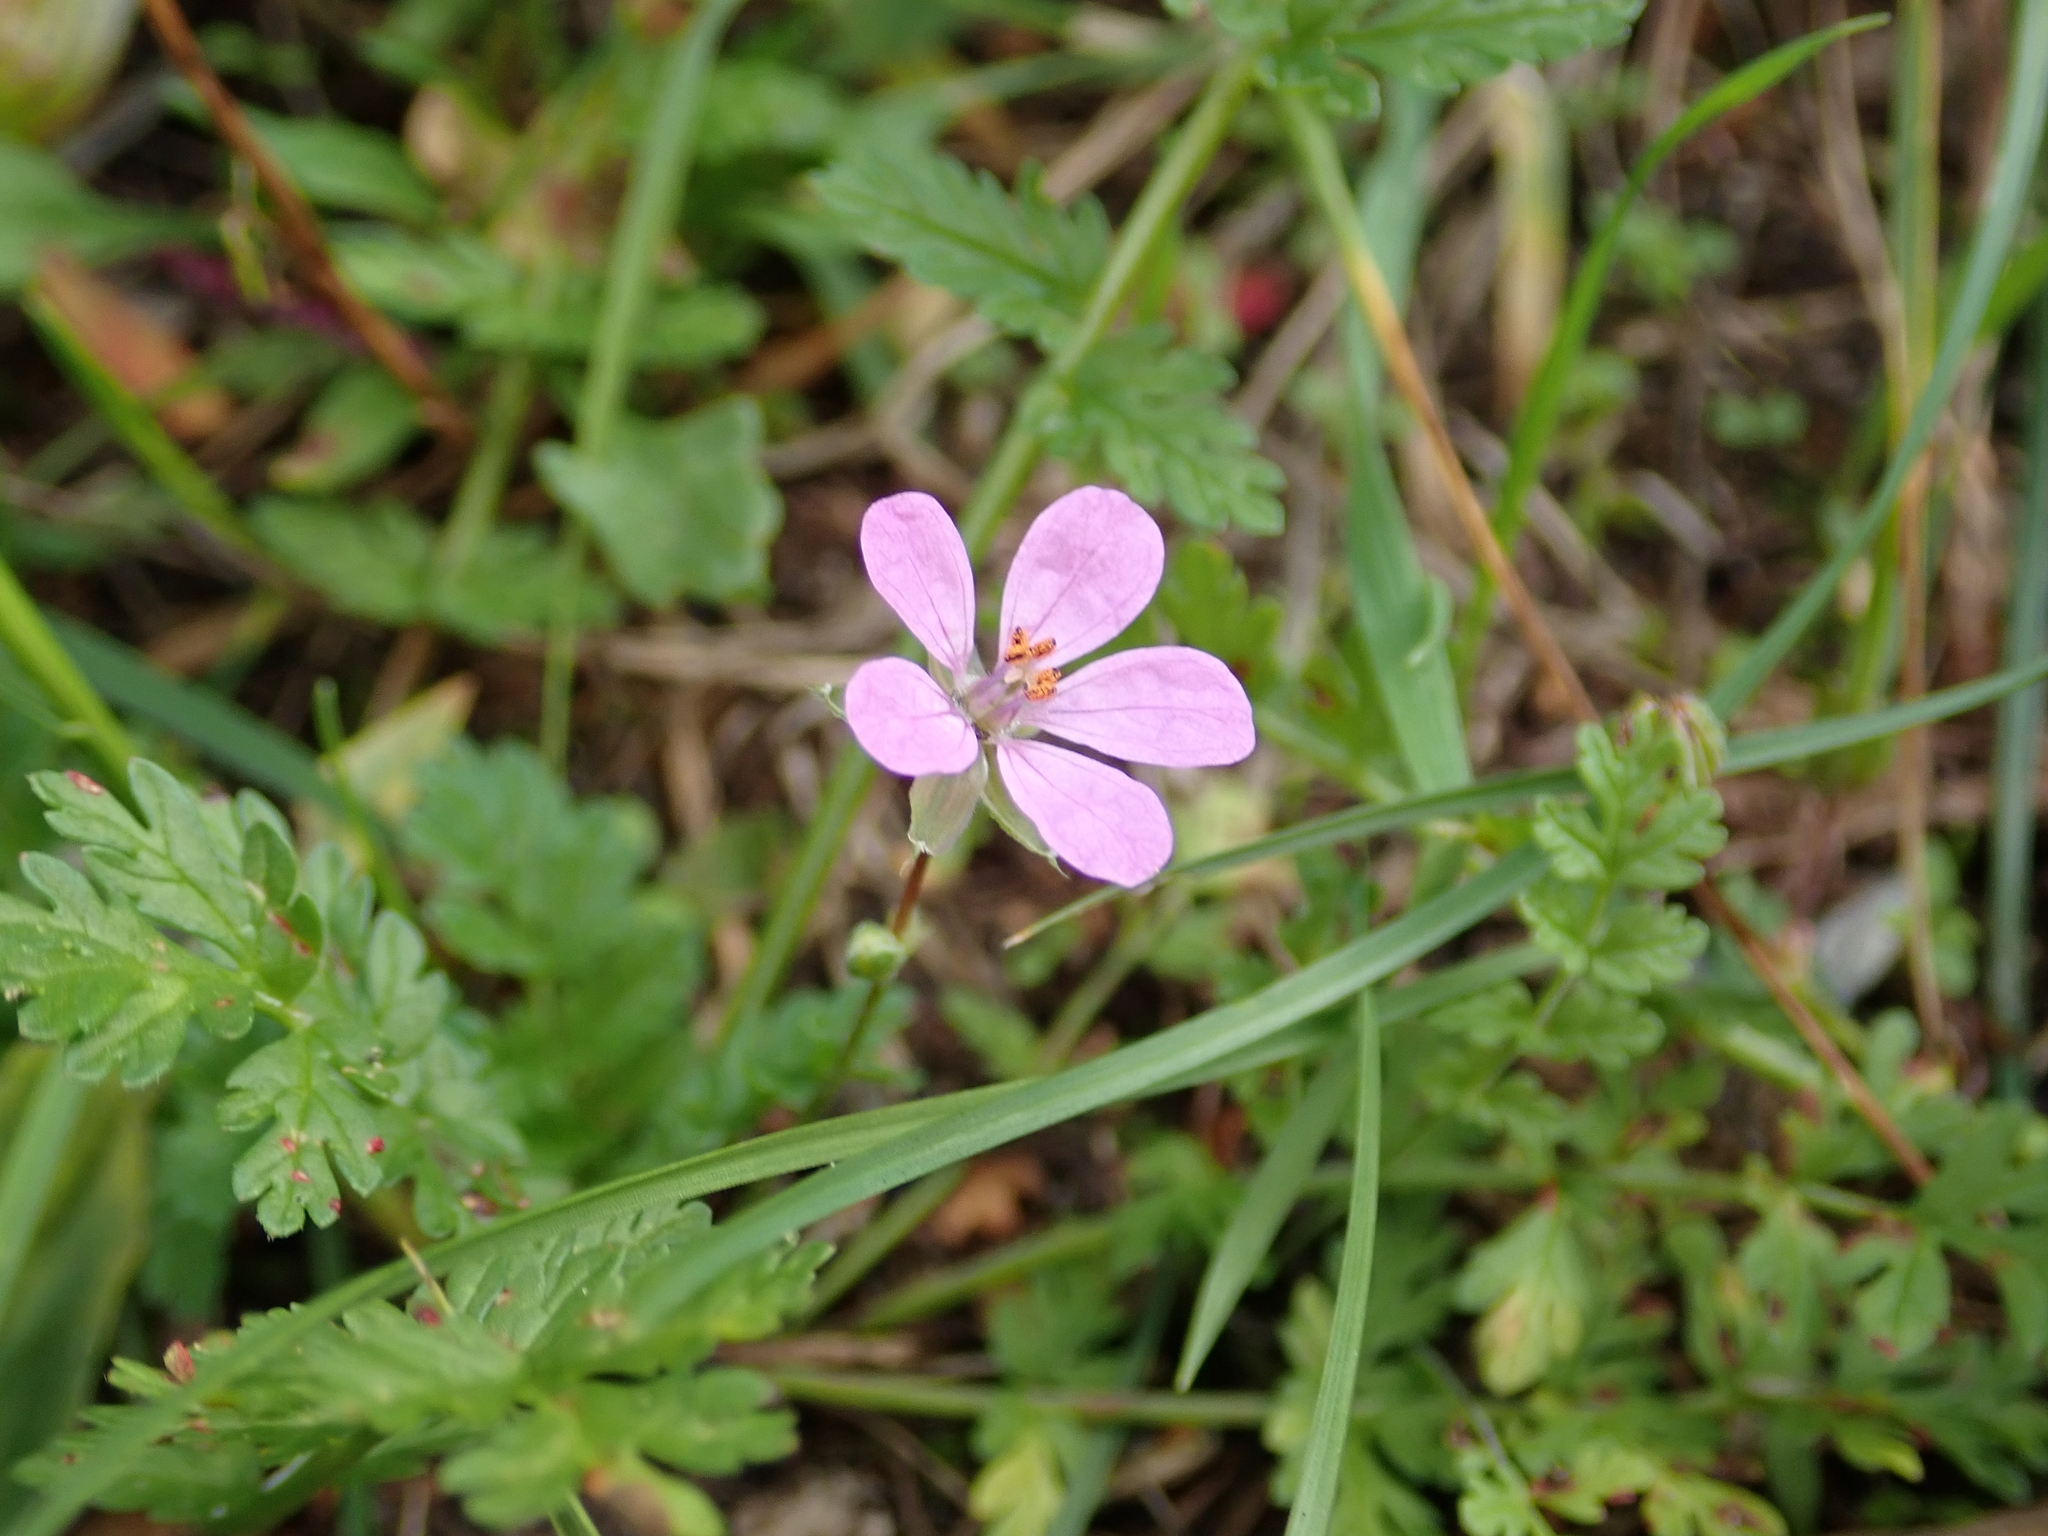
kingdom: Plantae
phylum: Tracheophyta
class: Magnoliopsida
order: Geraniales
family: Geraniaceae
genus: Erodium
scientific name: Erodium cicutarium
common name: Common stork's-bill
